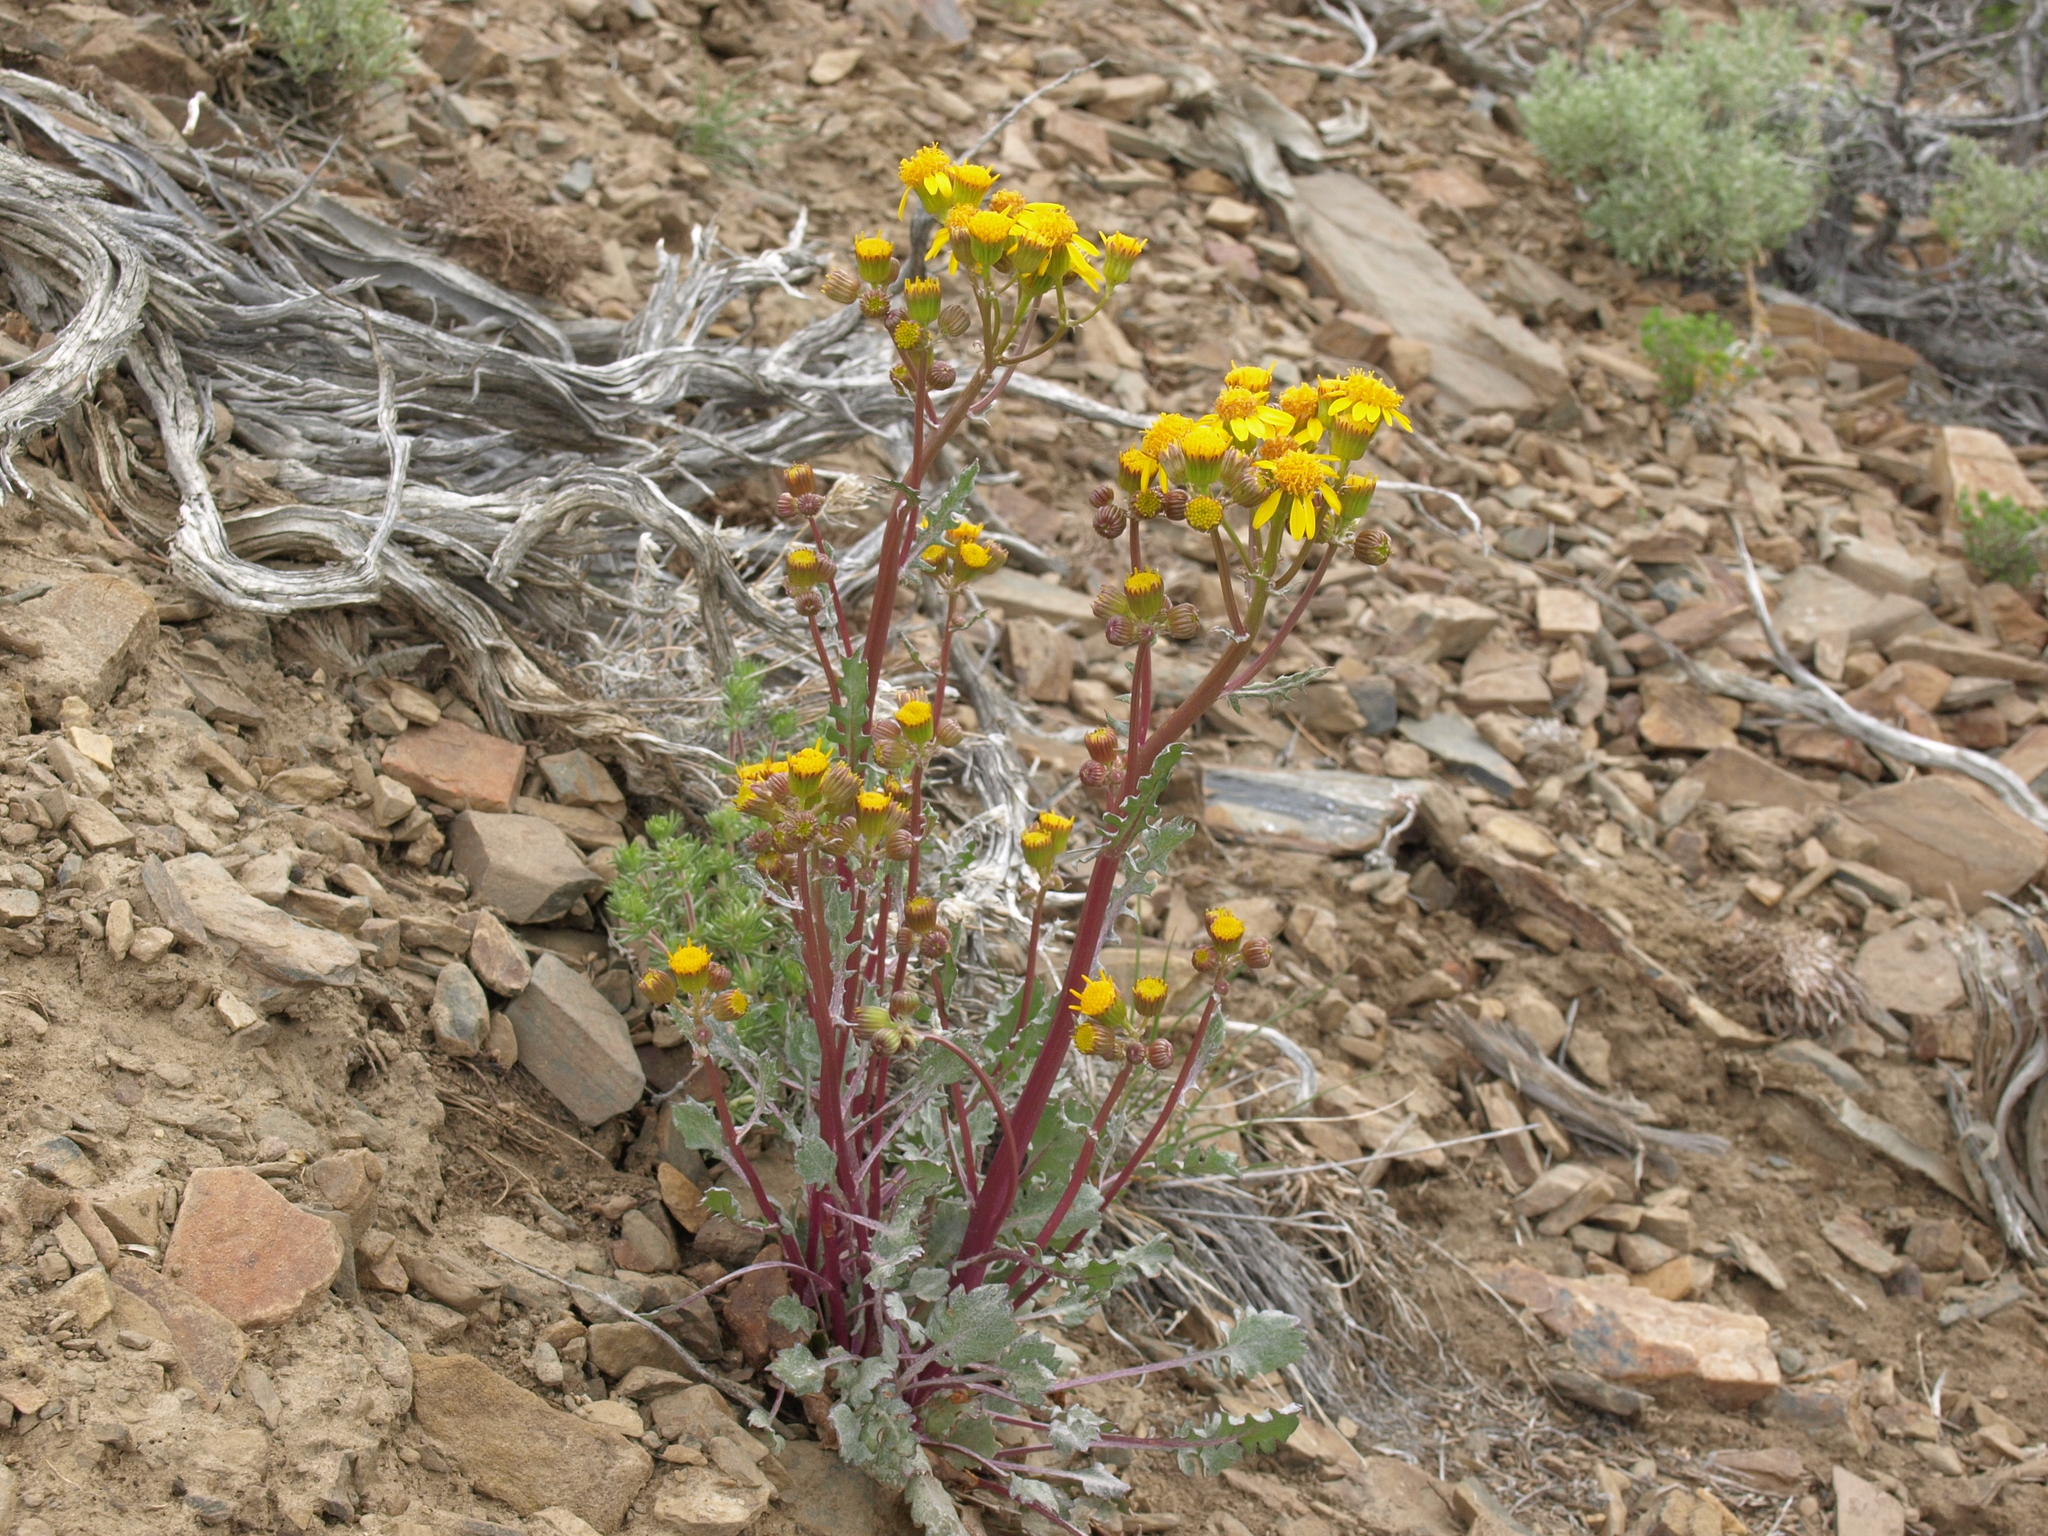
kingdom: Plantae
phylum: Tracheophyta
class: Magnoliopsida
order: Asterales
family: Asteraceae
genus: Packera
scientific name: Packera multilobata
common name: Lobe-leaf groundsel
